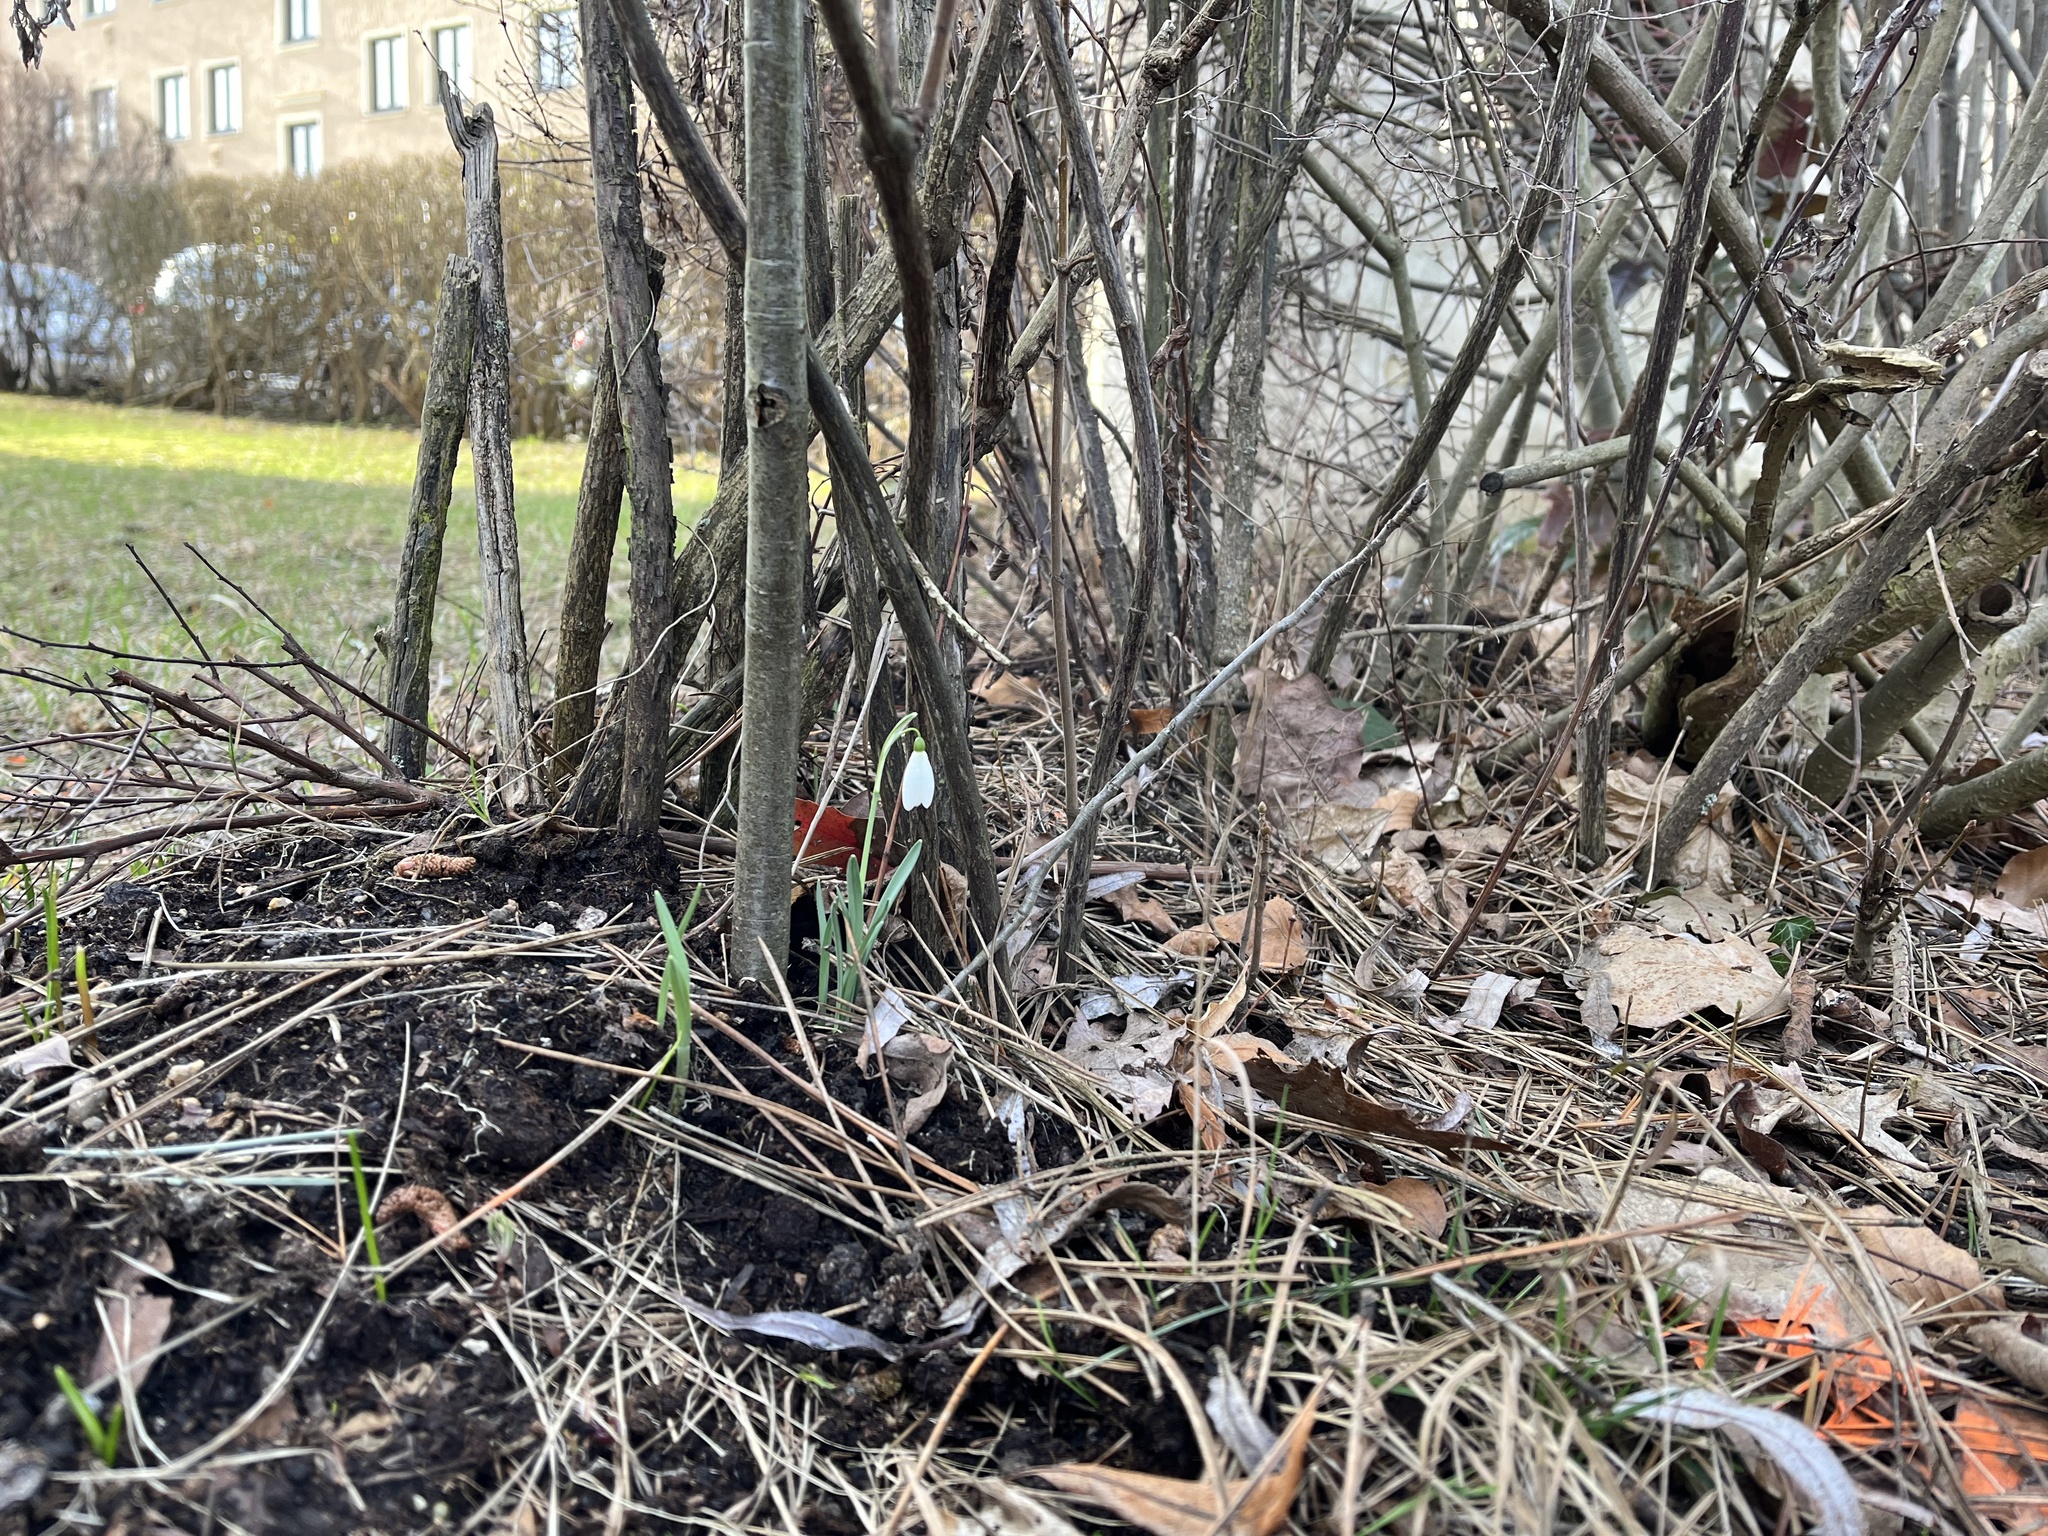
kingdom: Plantae
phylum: Tracheophyta
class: Liliopsida
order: Asparagales
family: Amaryllidaceae
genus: Galanthus
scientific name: Galanthus nivalis
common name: Snowdrop
